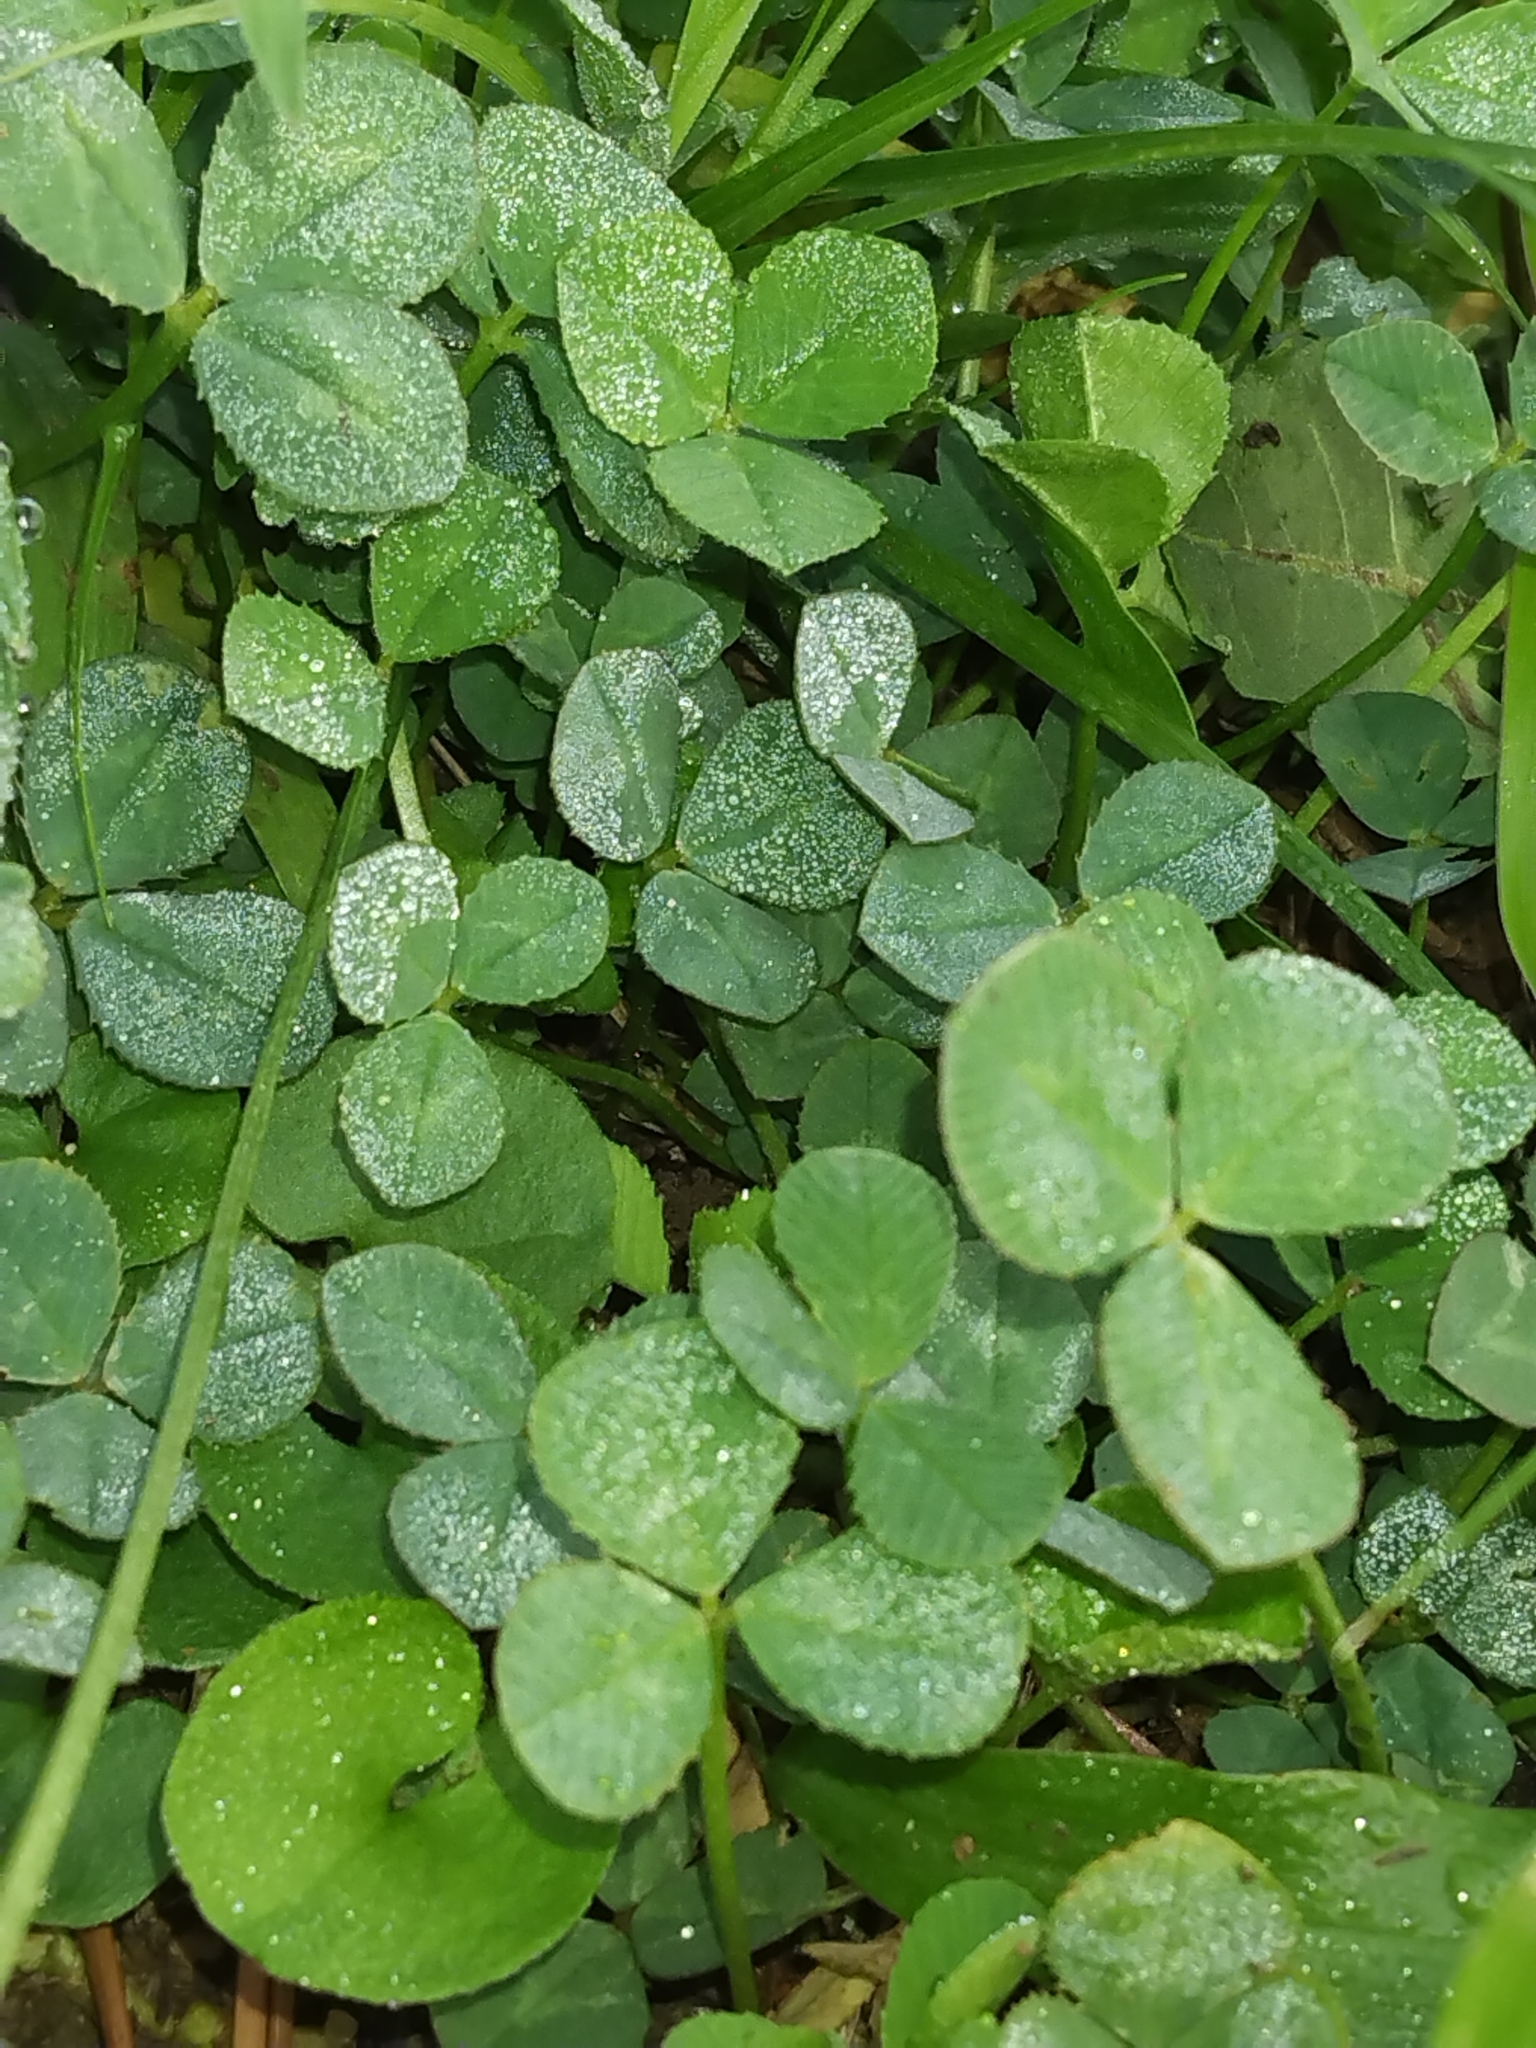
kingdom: Plantae
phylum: Tracheophyta
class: Magnoliopsida
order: Fabales
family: Fabaceae
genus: Trifolium
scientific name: Trifolium repens
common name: White clover
